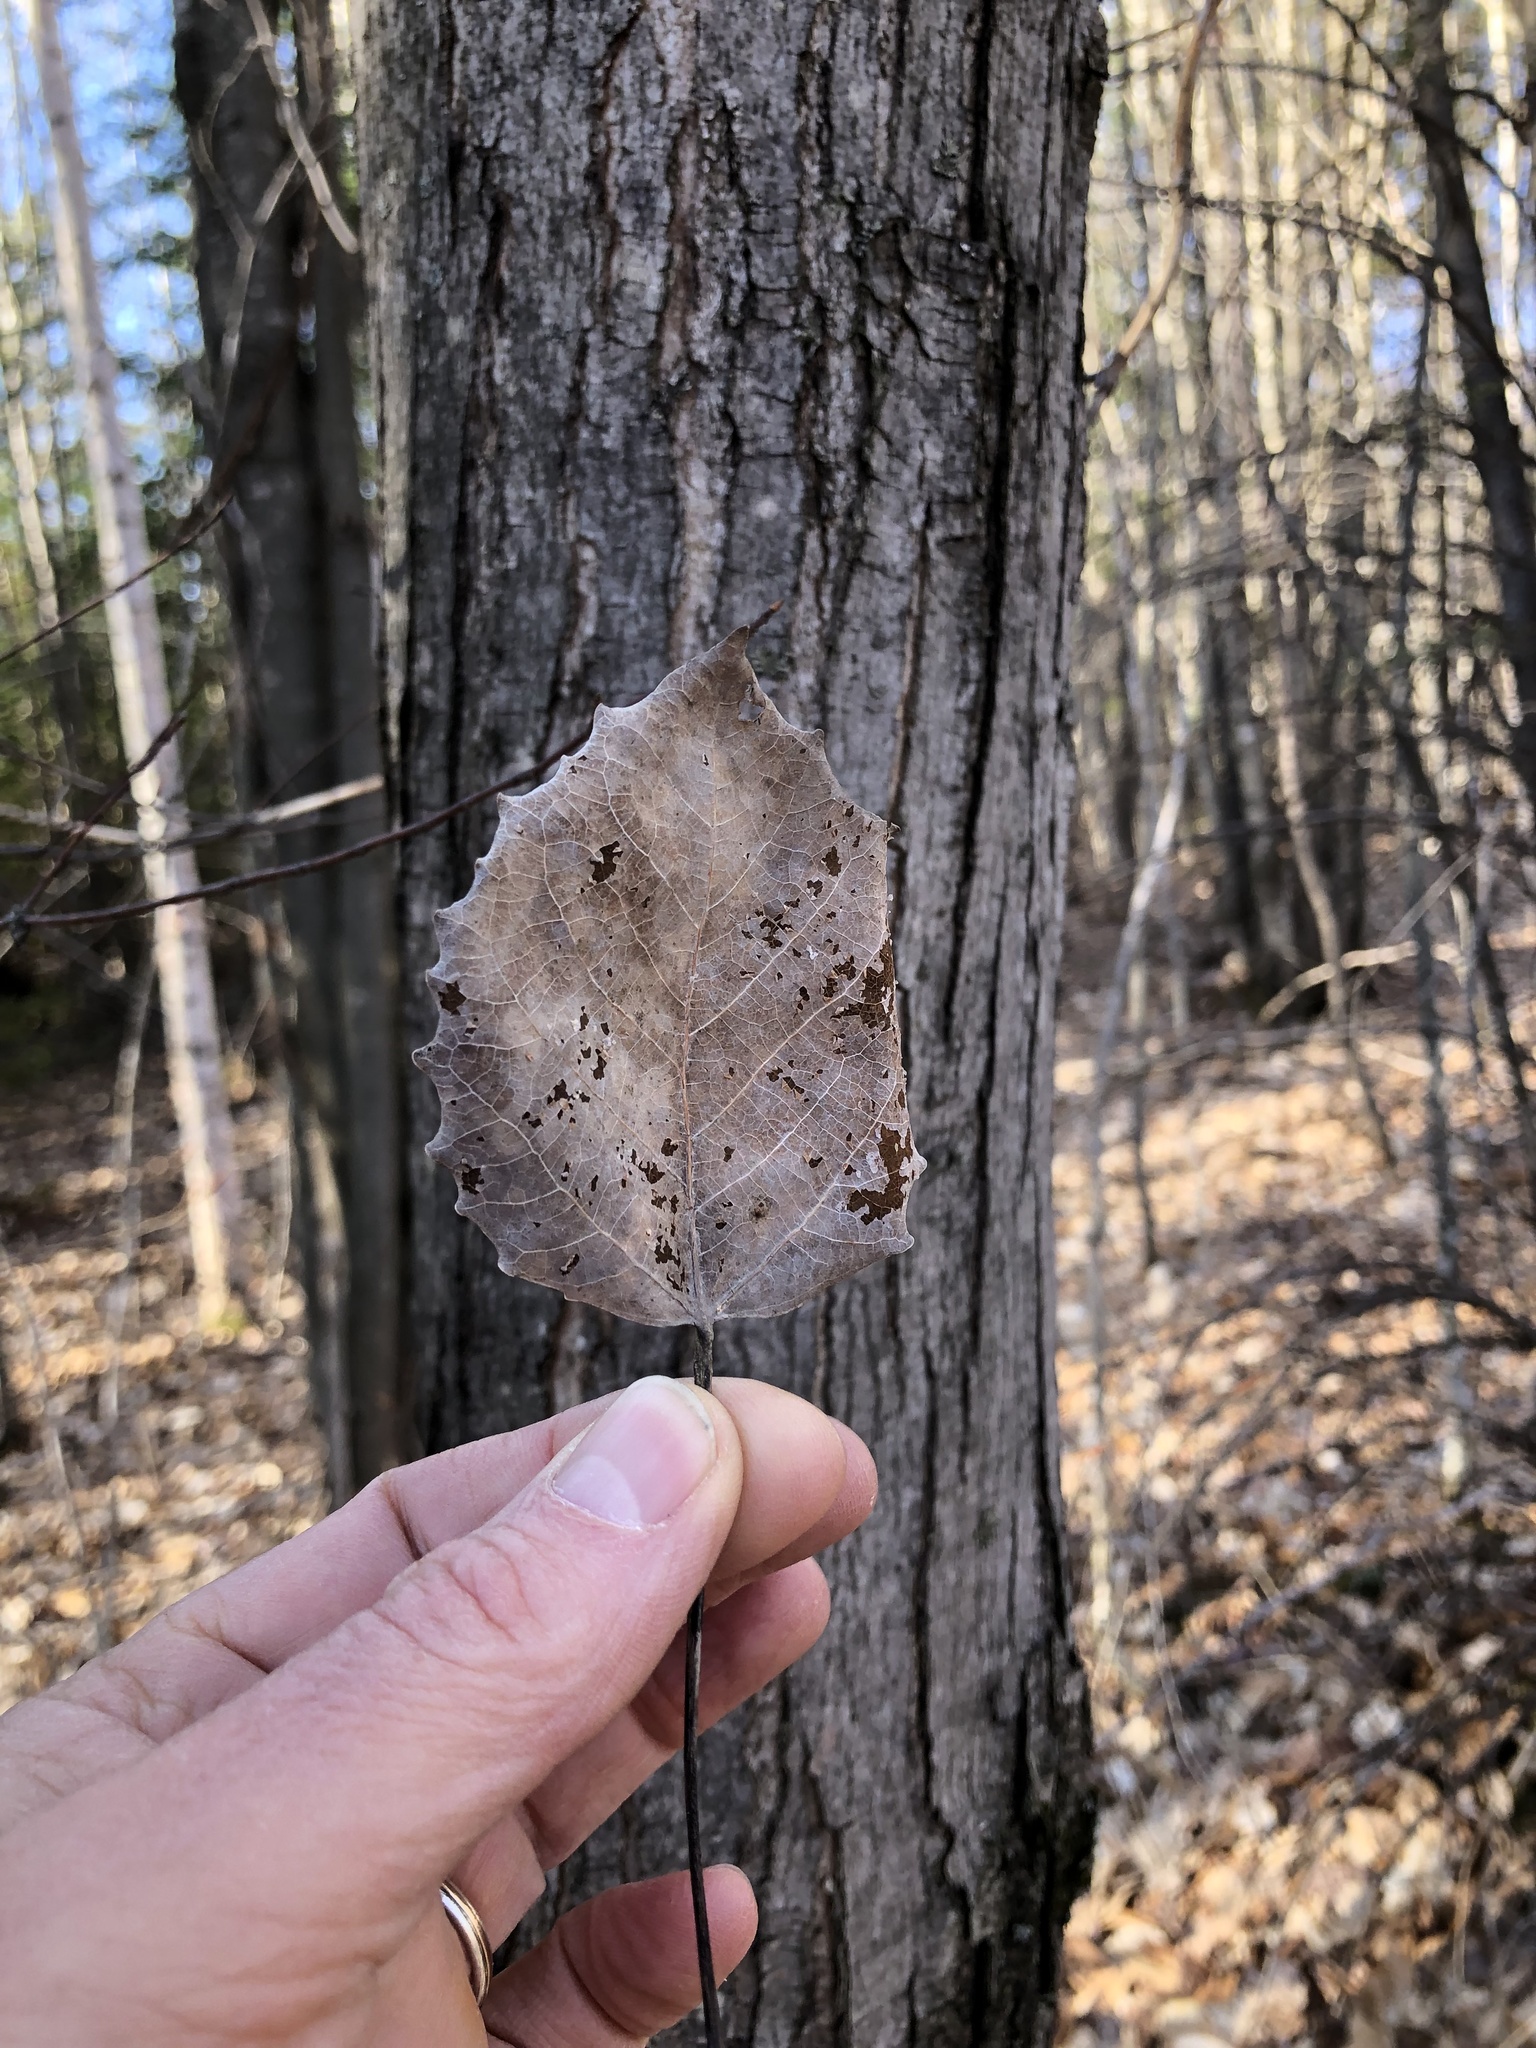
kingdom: Plantae
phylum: Tracheophyta
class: Magnoliopsida
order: Malpighiales
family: Salicaceae
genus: Populus
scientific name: Populus grandidentata
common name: Bigtooth aspen
